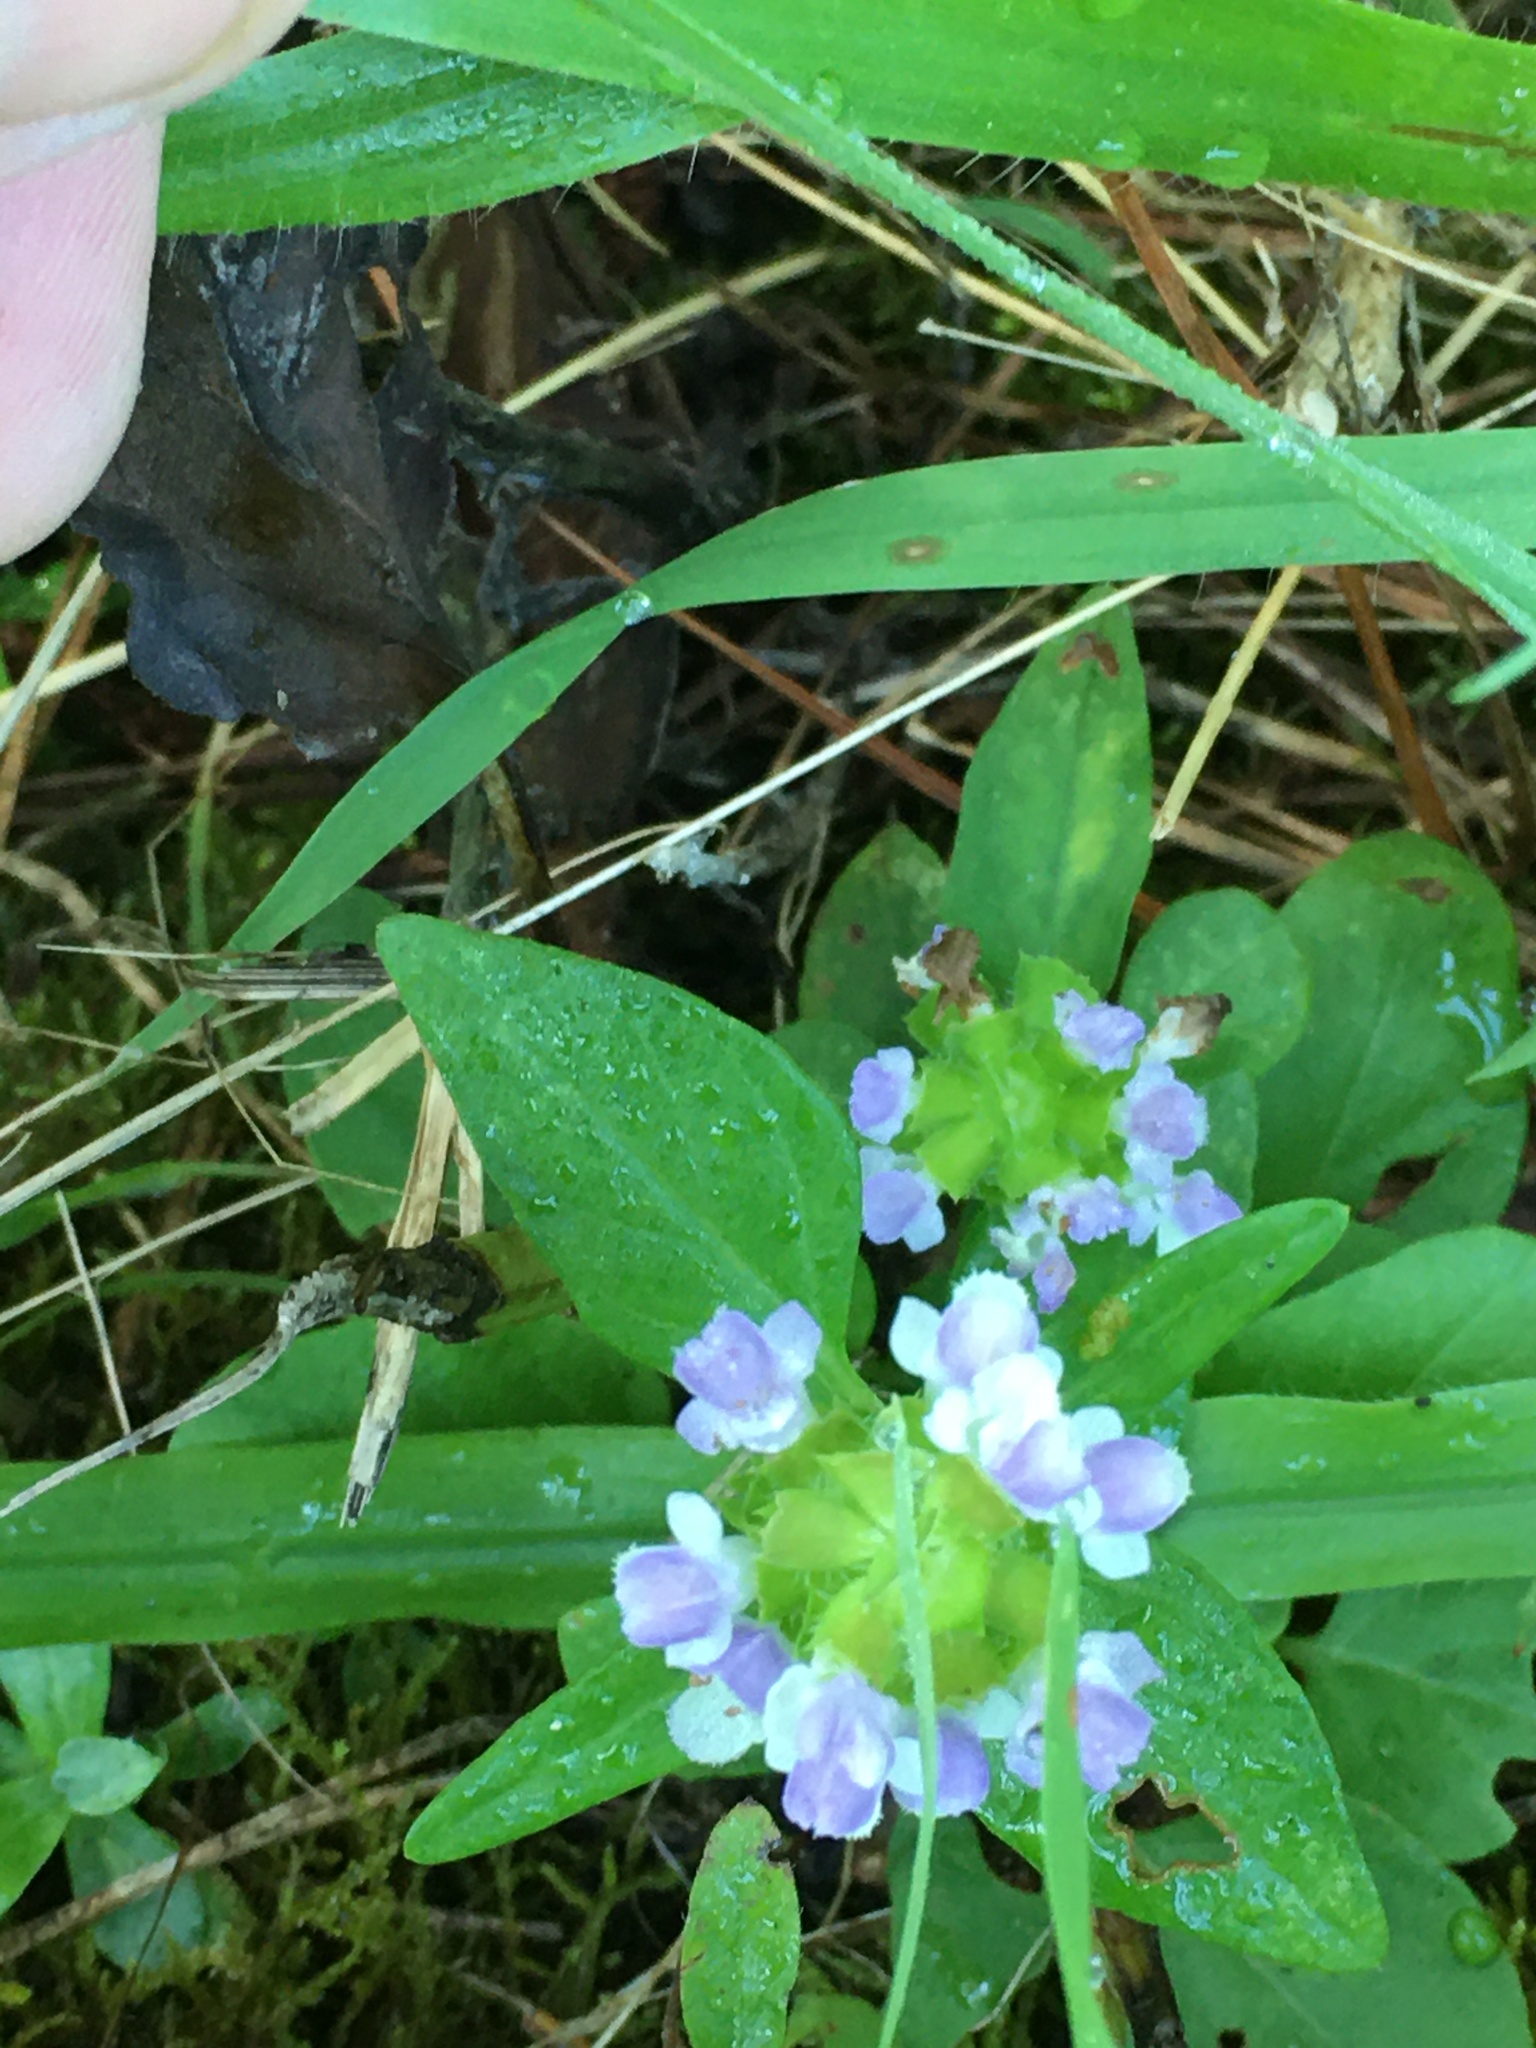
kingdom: Plantae
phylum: Tracheophyta
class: Magnoliopsida
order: Lamiales
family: Lamiaceae
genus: Prunella
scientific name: Prunella vulgaris
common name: Heal-all
